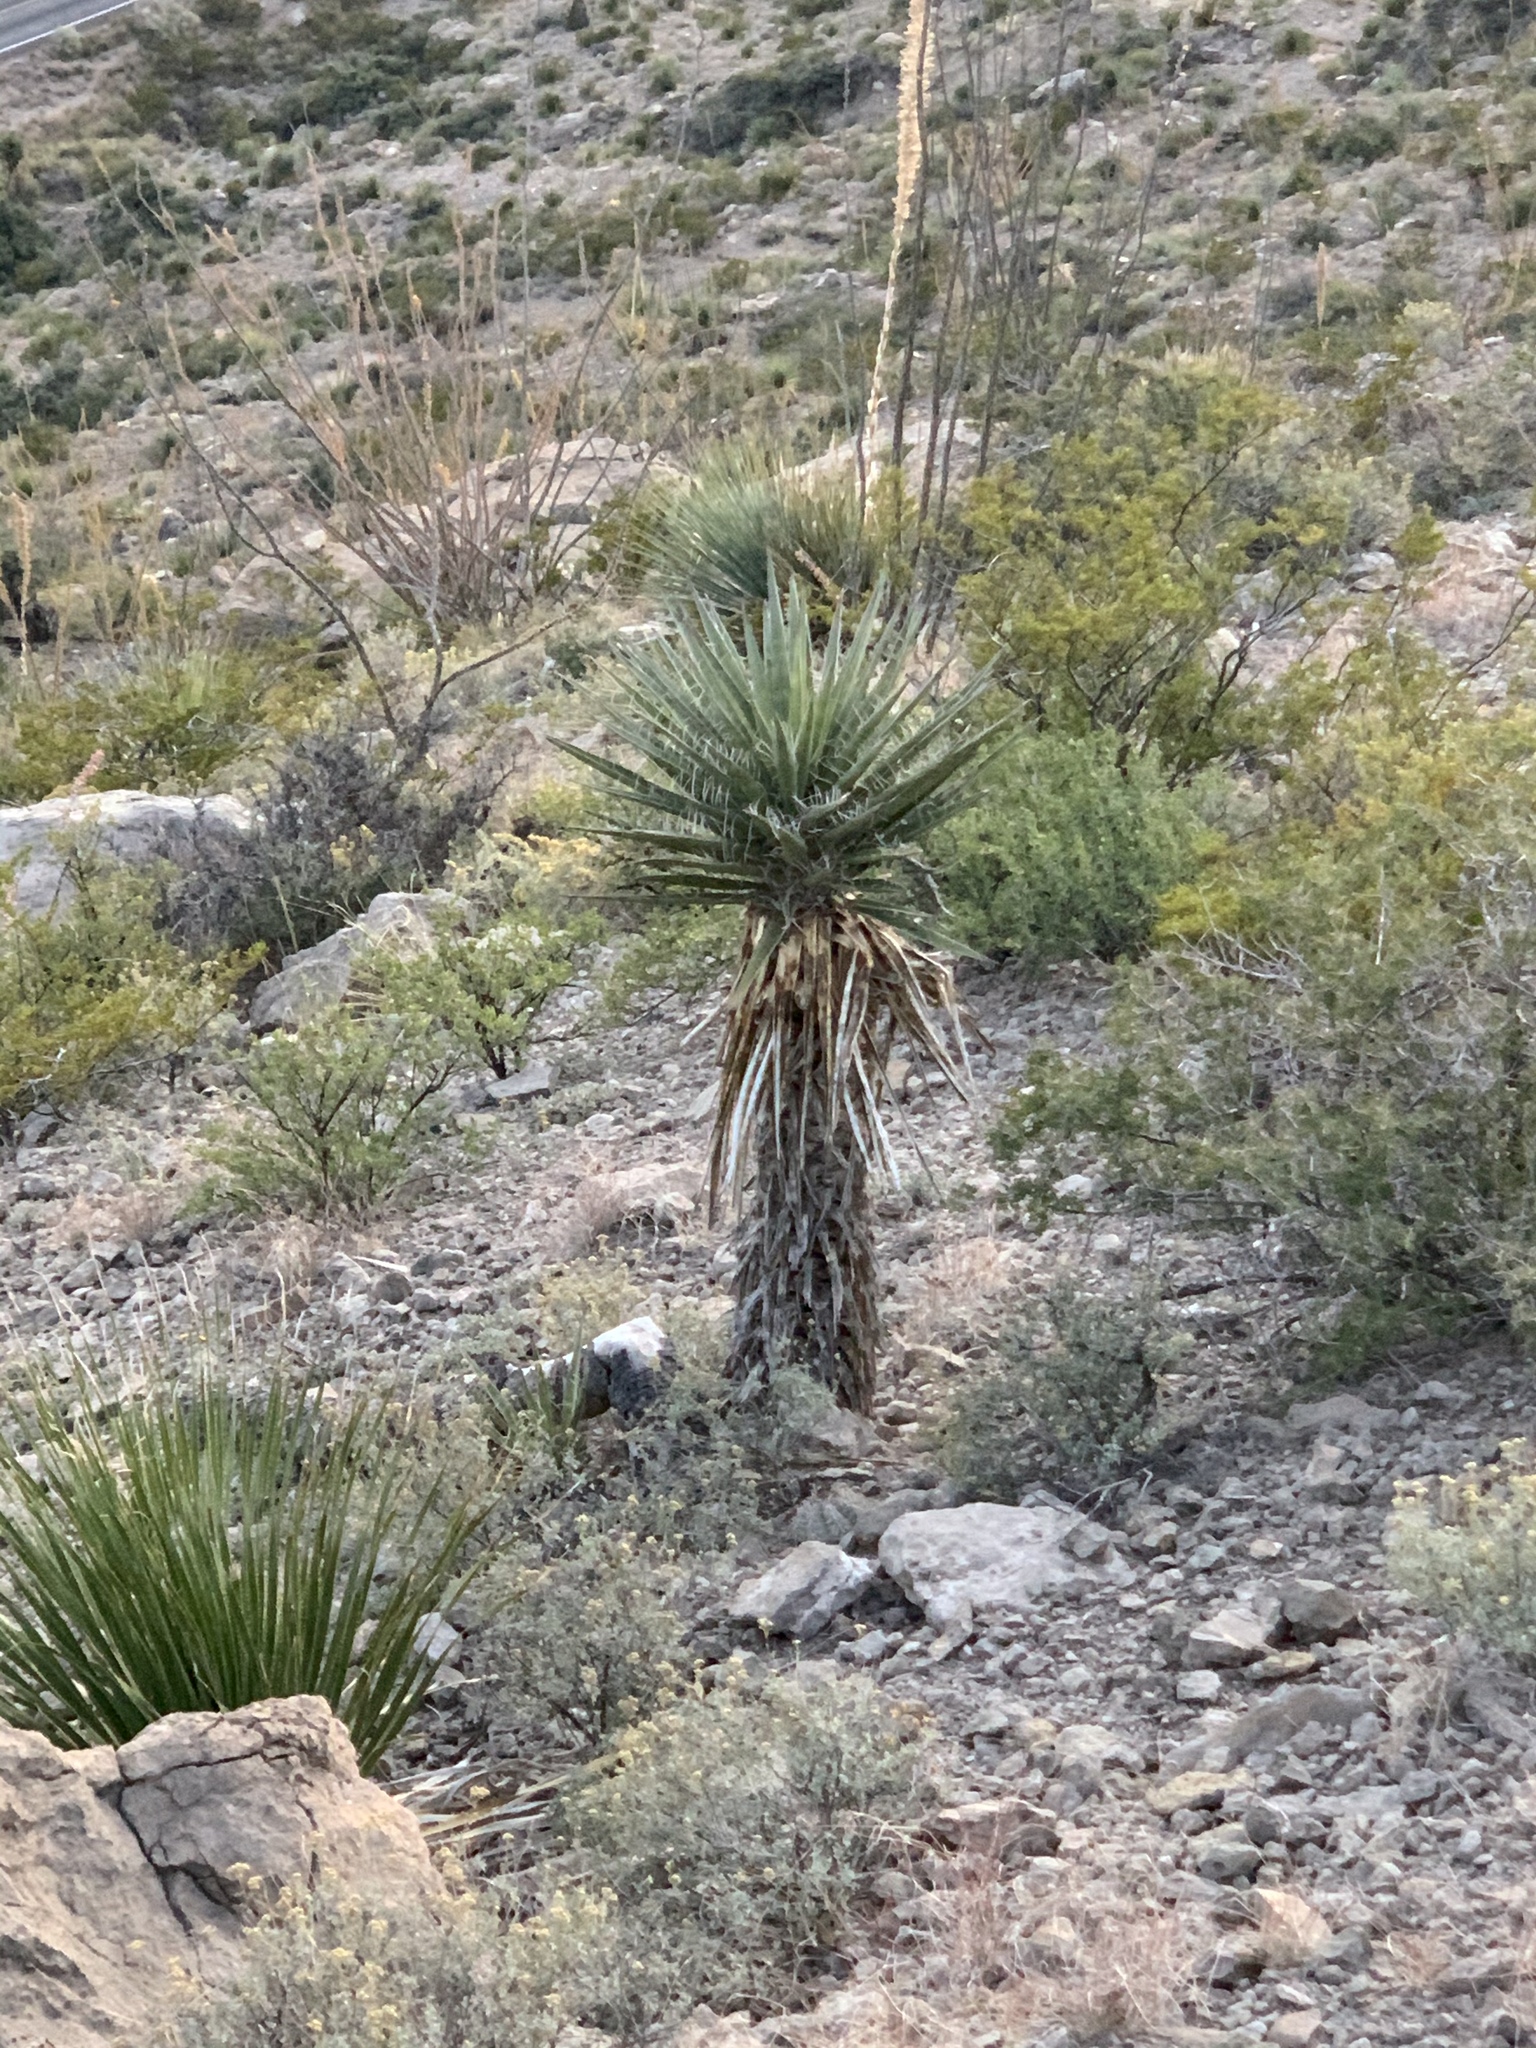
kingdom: Plantae
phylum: Tracheophyta
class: Liliopsida
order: Asparagales
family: Asparagaceae
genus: Yucca
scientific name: Yucca treculiana
